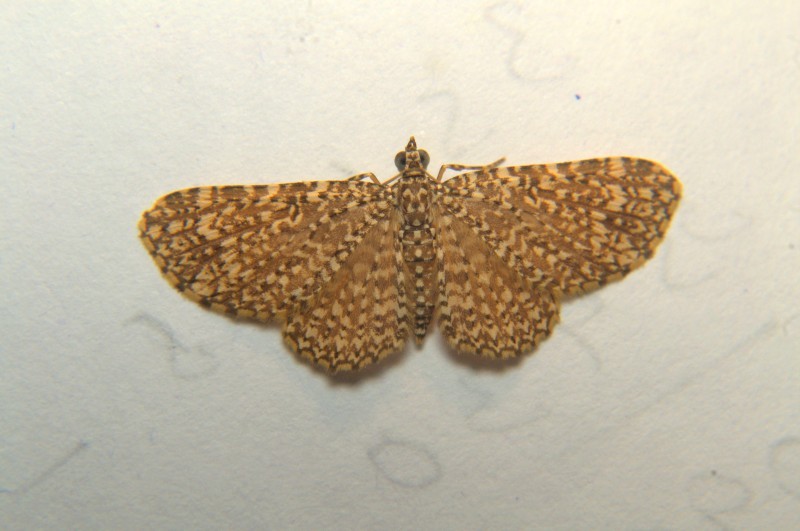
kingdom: Animalia
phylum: Arthropoda
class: Insecta
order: Lepidoptera
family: Geometridae
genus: Pomasia
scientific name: Pomasia denticlathrata
